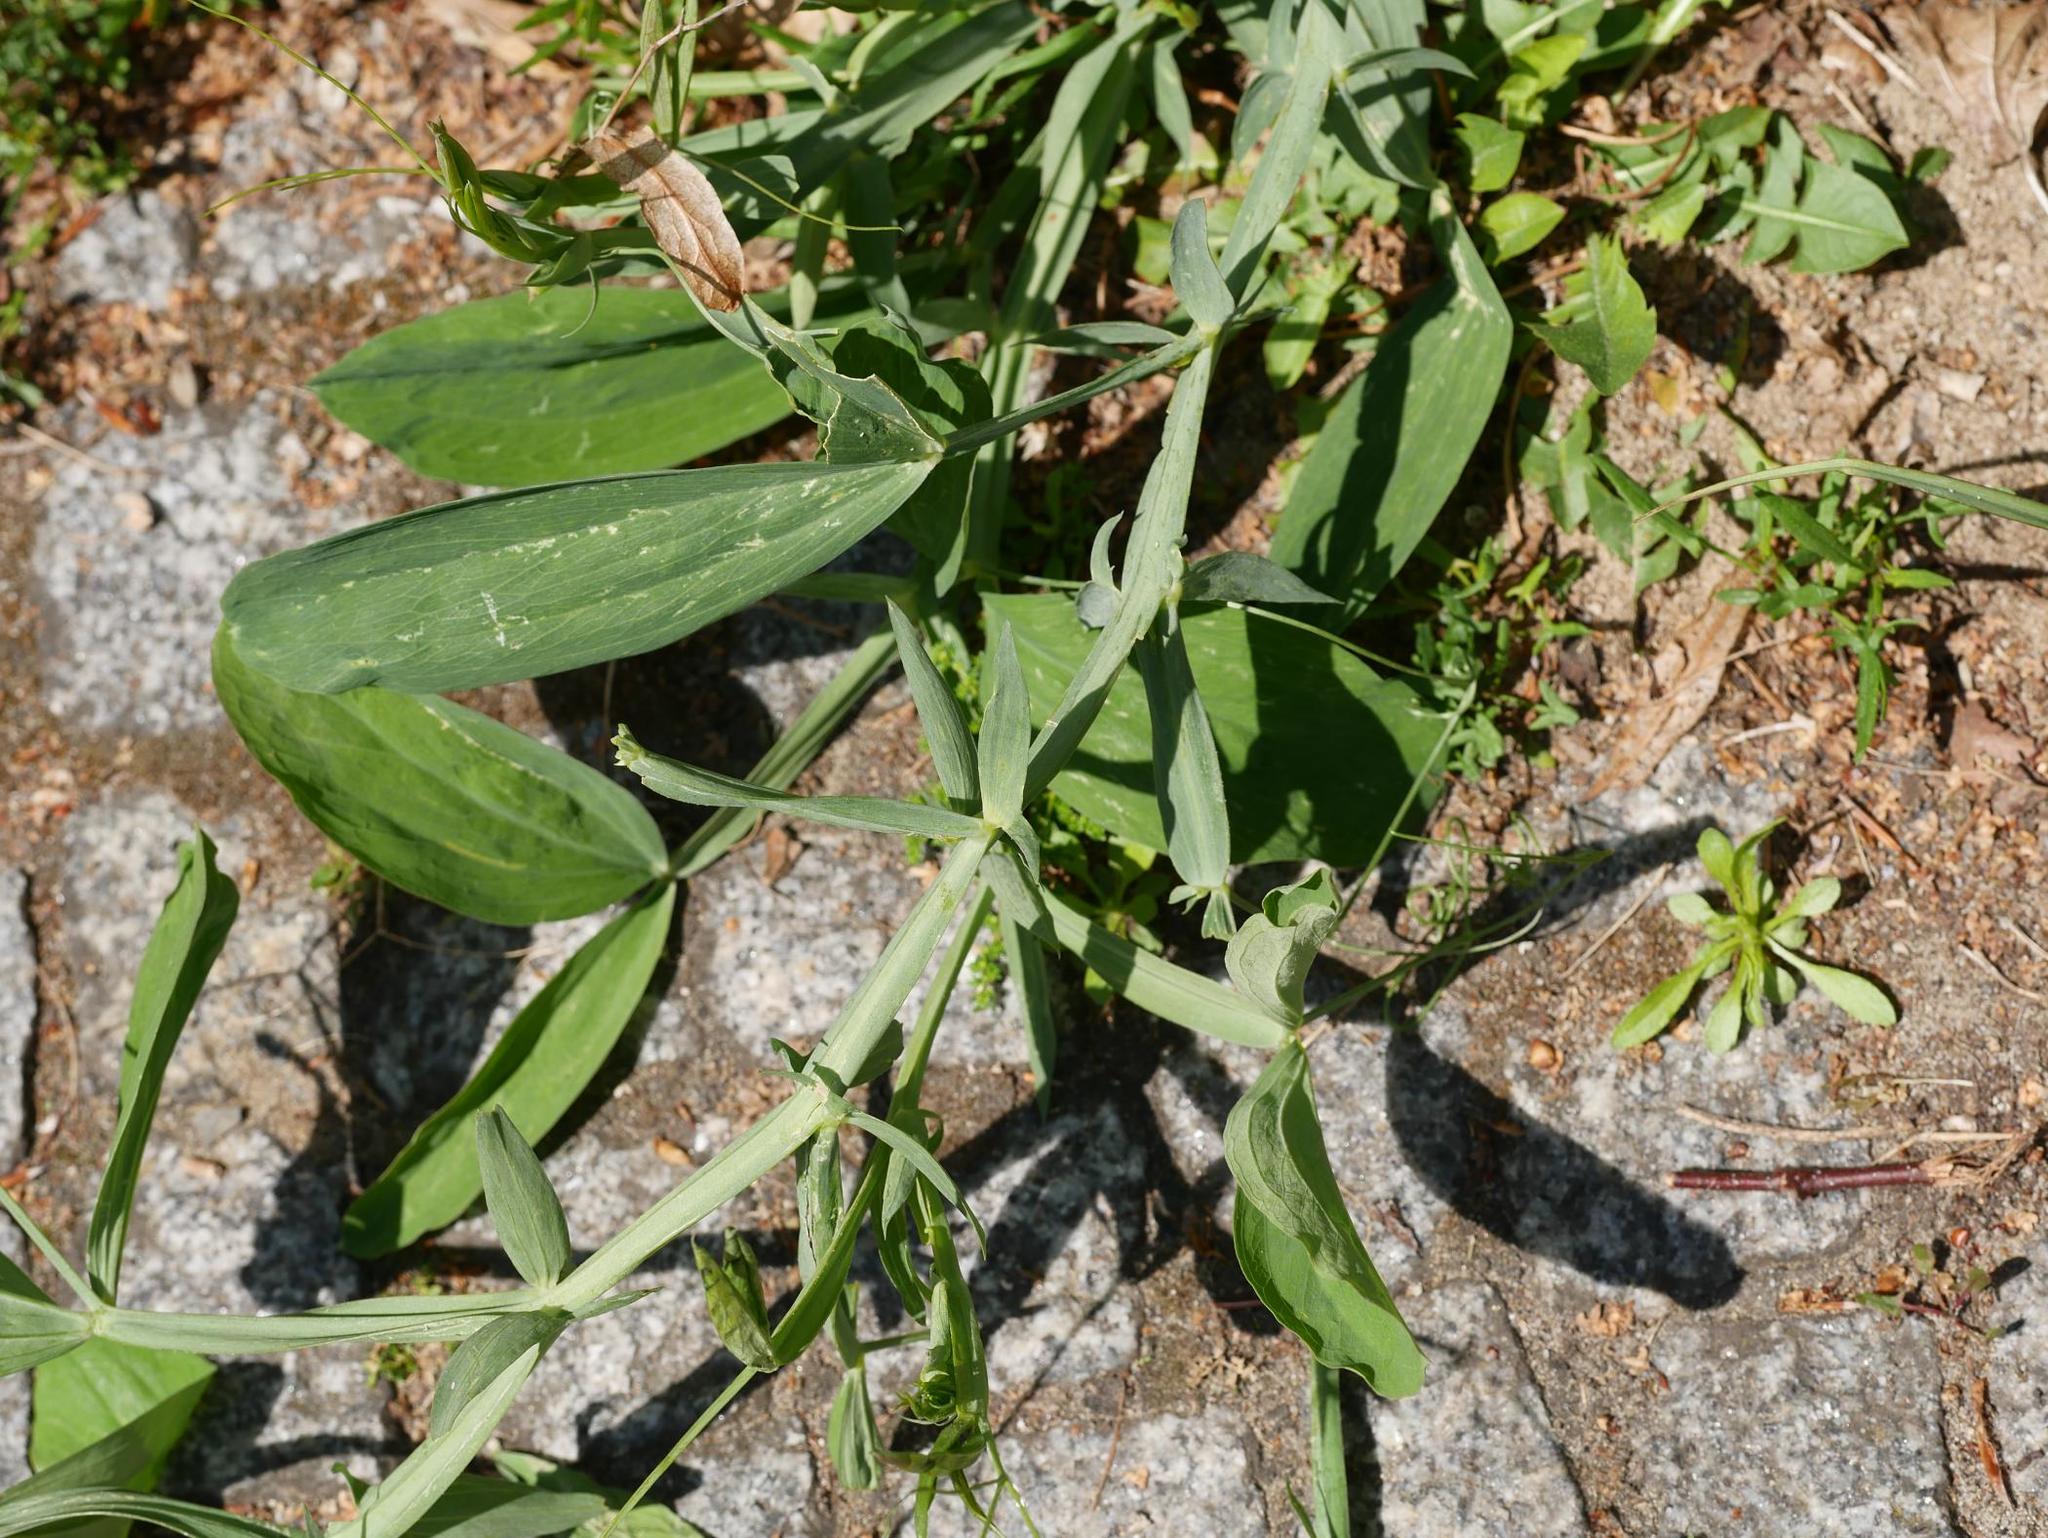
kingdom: Plantae
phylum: Tracheophyta
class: Magnoliopsida
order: Fabales
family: Fabaceae
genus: Lathyrus
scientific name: Lathyrus latifolius
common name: Perennial pea
